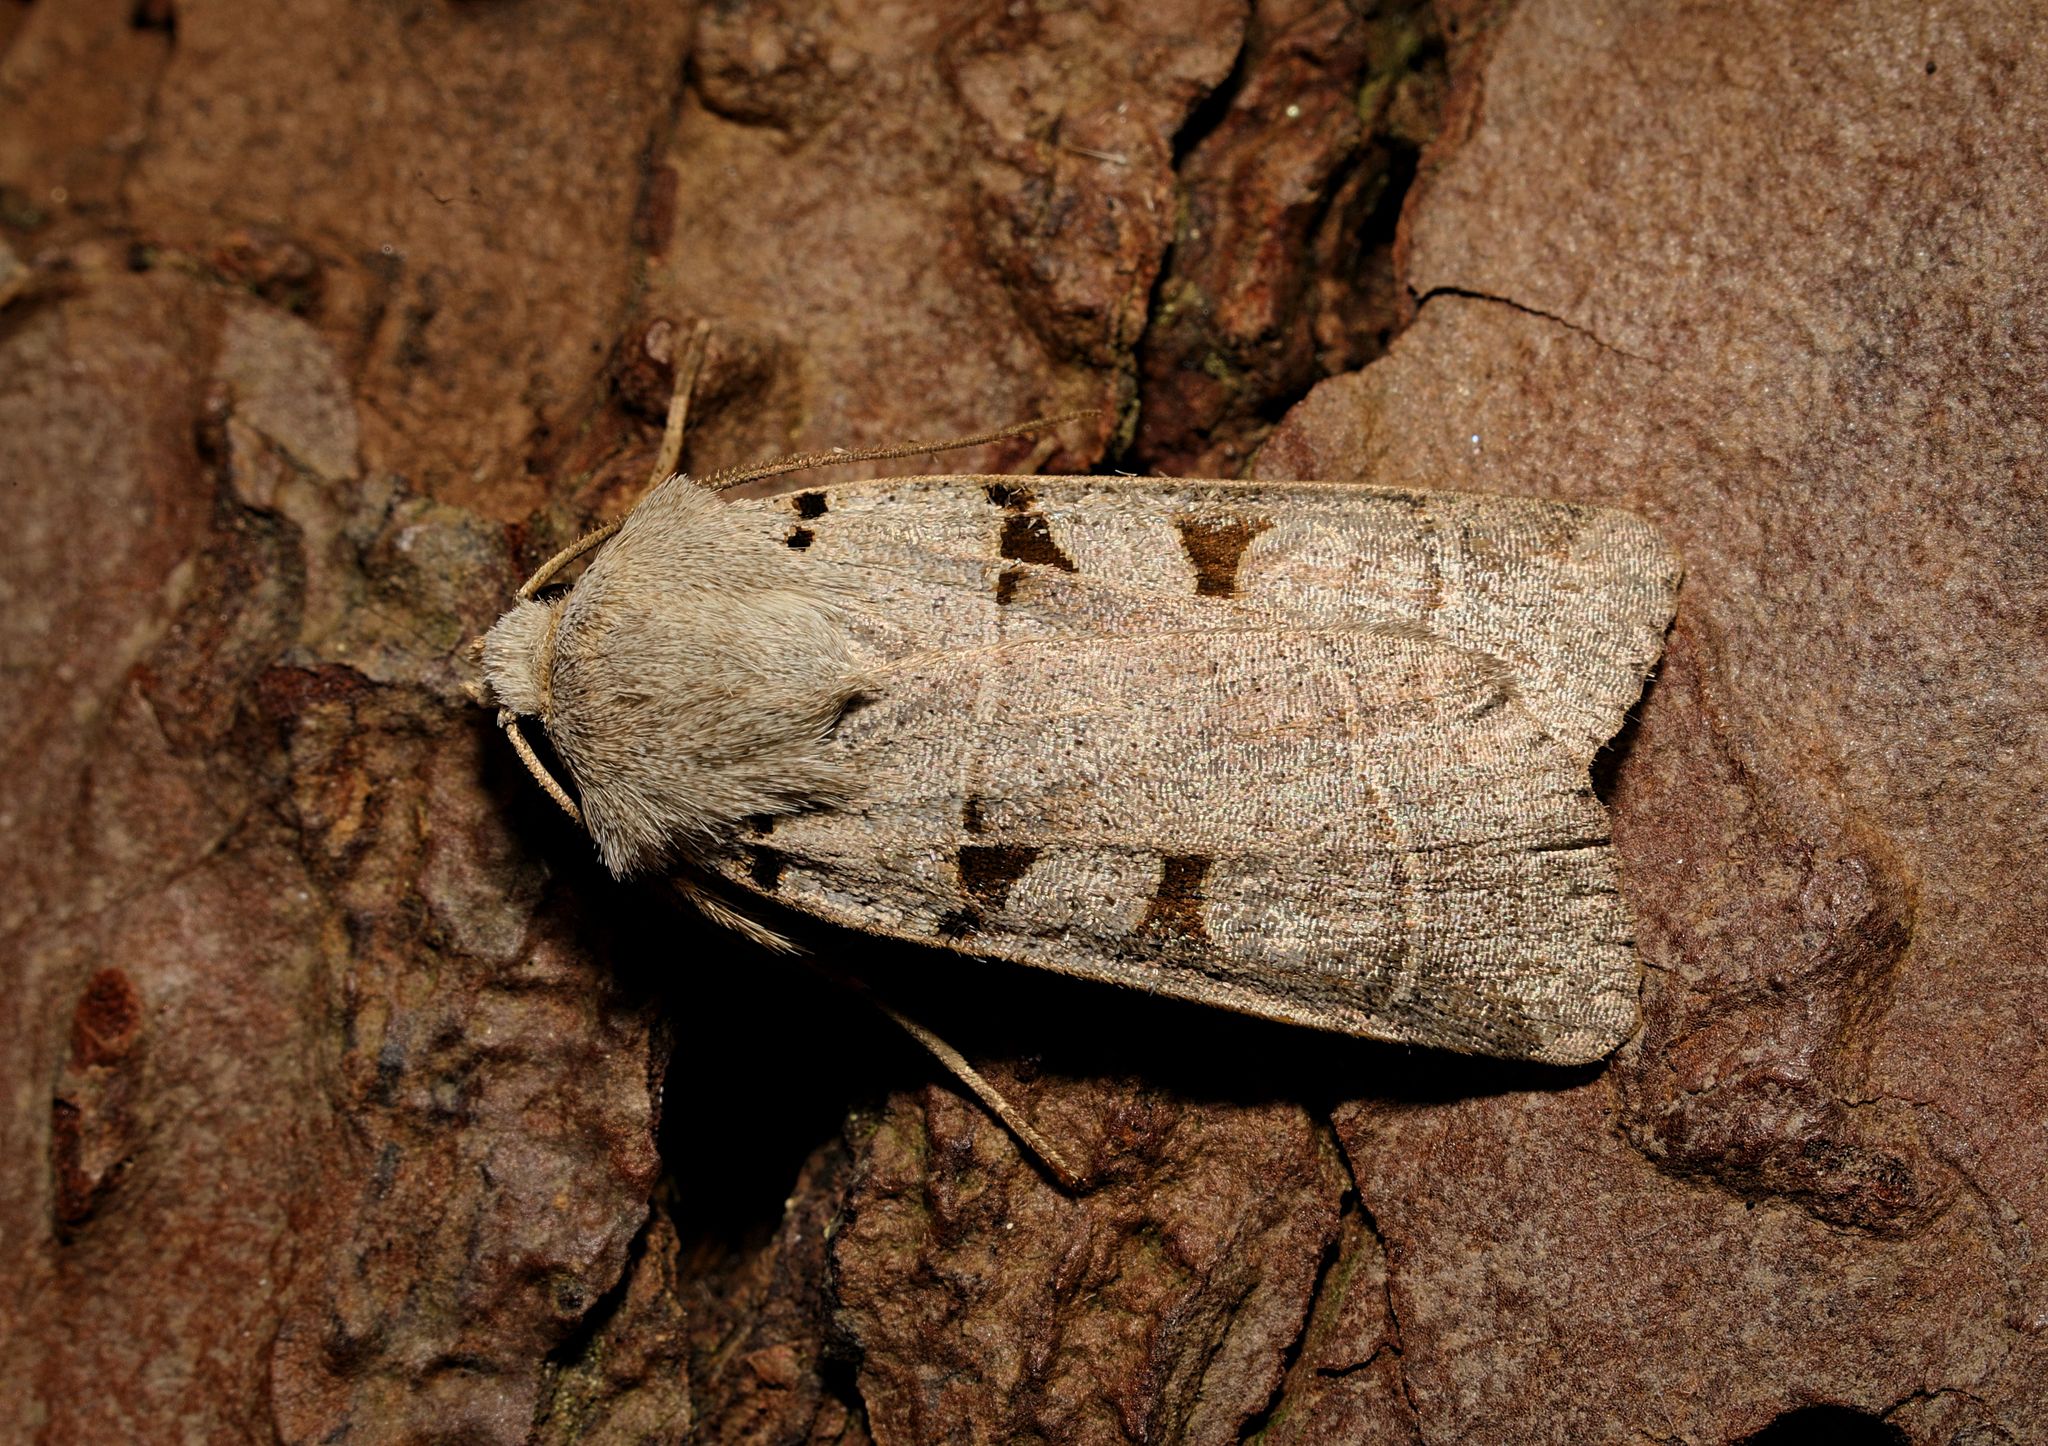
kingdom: Animalia
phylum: Arthropoda
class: Insecta
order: Lepidoptera
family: Noctuidae
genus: Eugnorisma
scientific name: Eugnorisma glareosa
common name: Autumnal rustic
